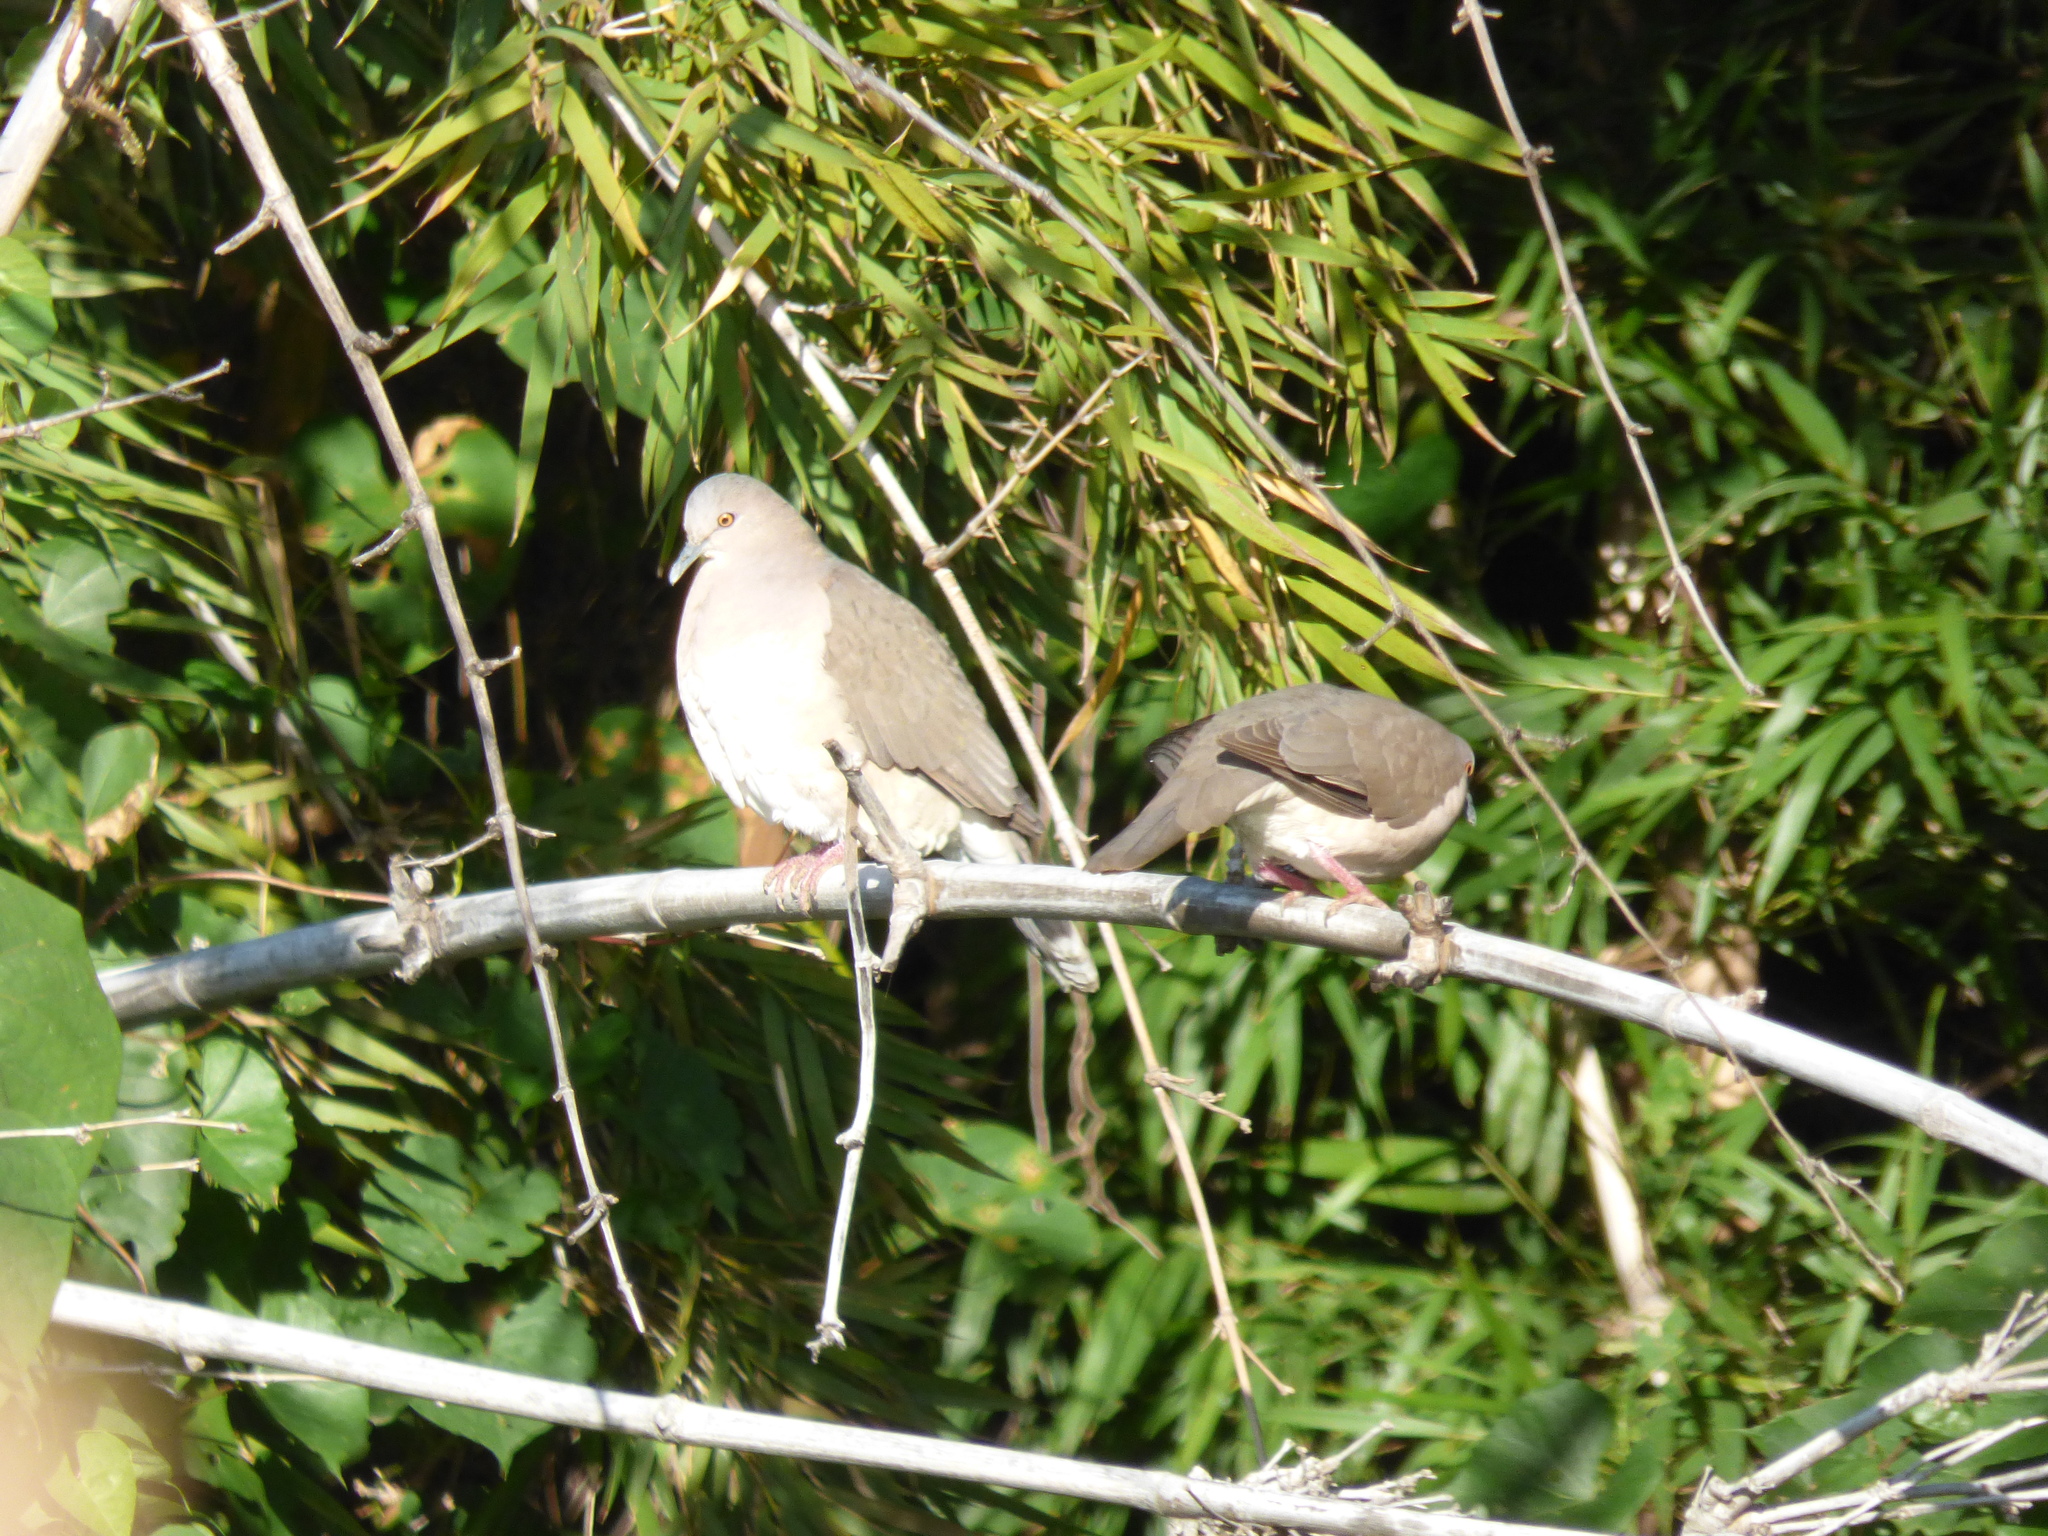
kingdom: Animalia
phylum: Chordata
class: Aves
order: Columbiformes
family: Columbidae
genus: Leptotila
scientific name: Leptotila verreauxi
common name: White-tipped dove
